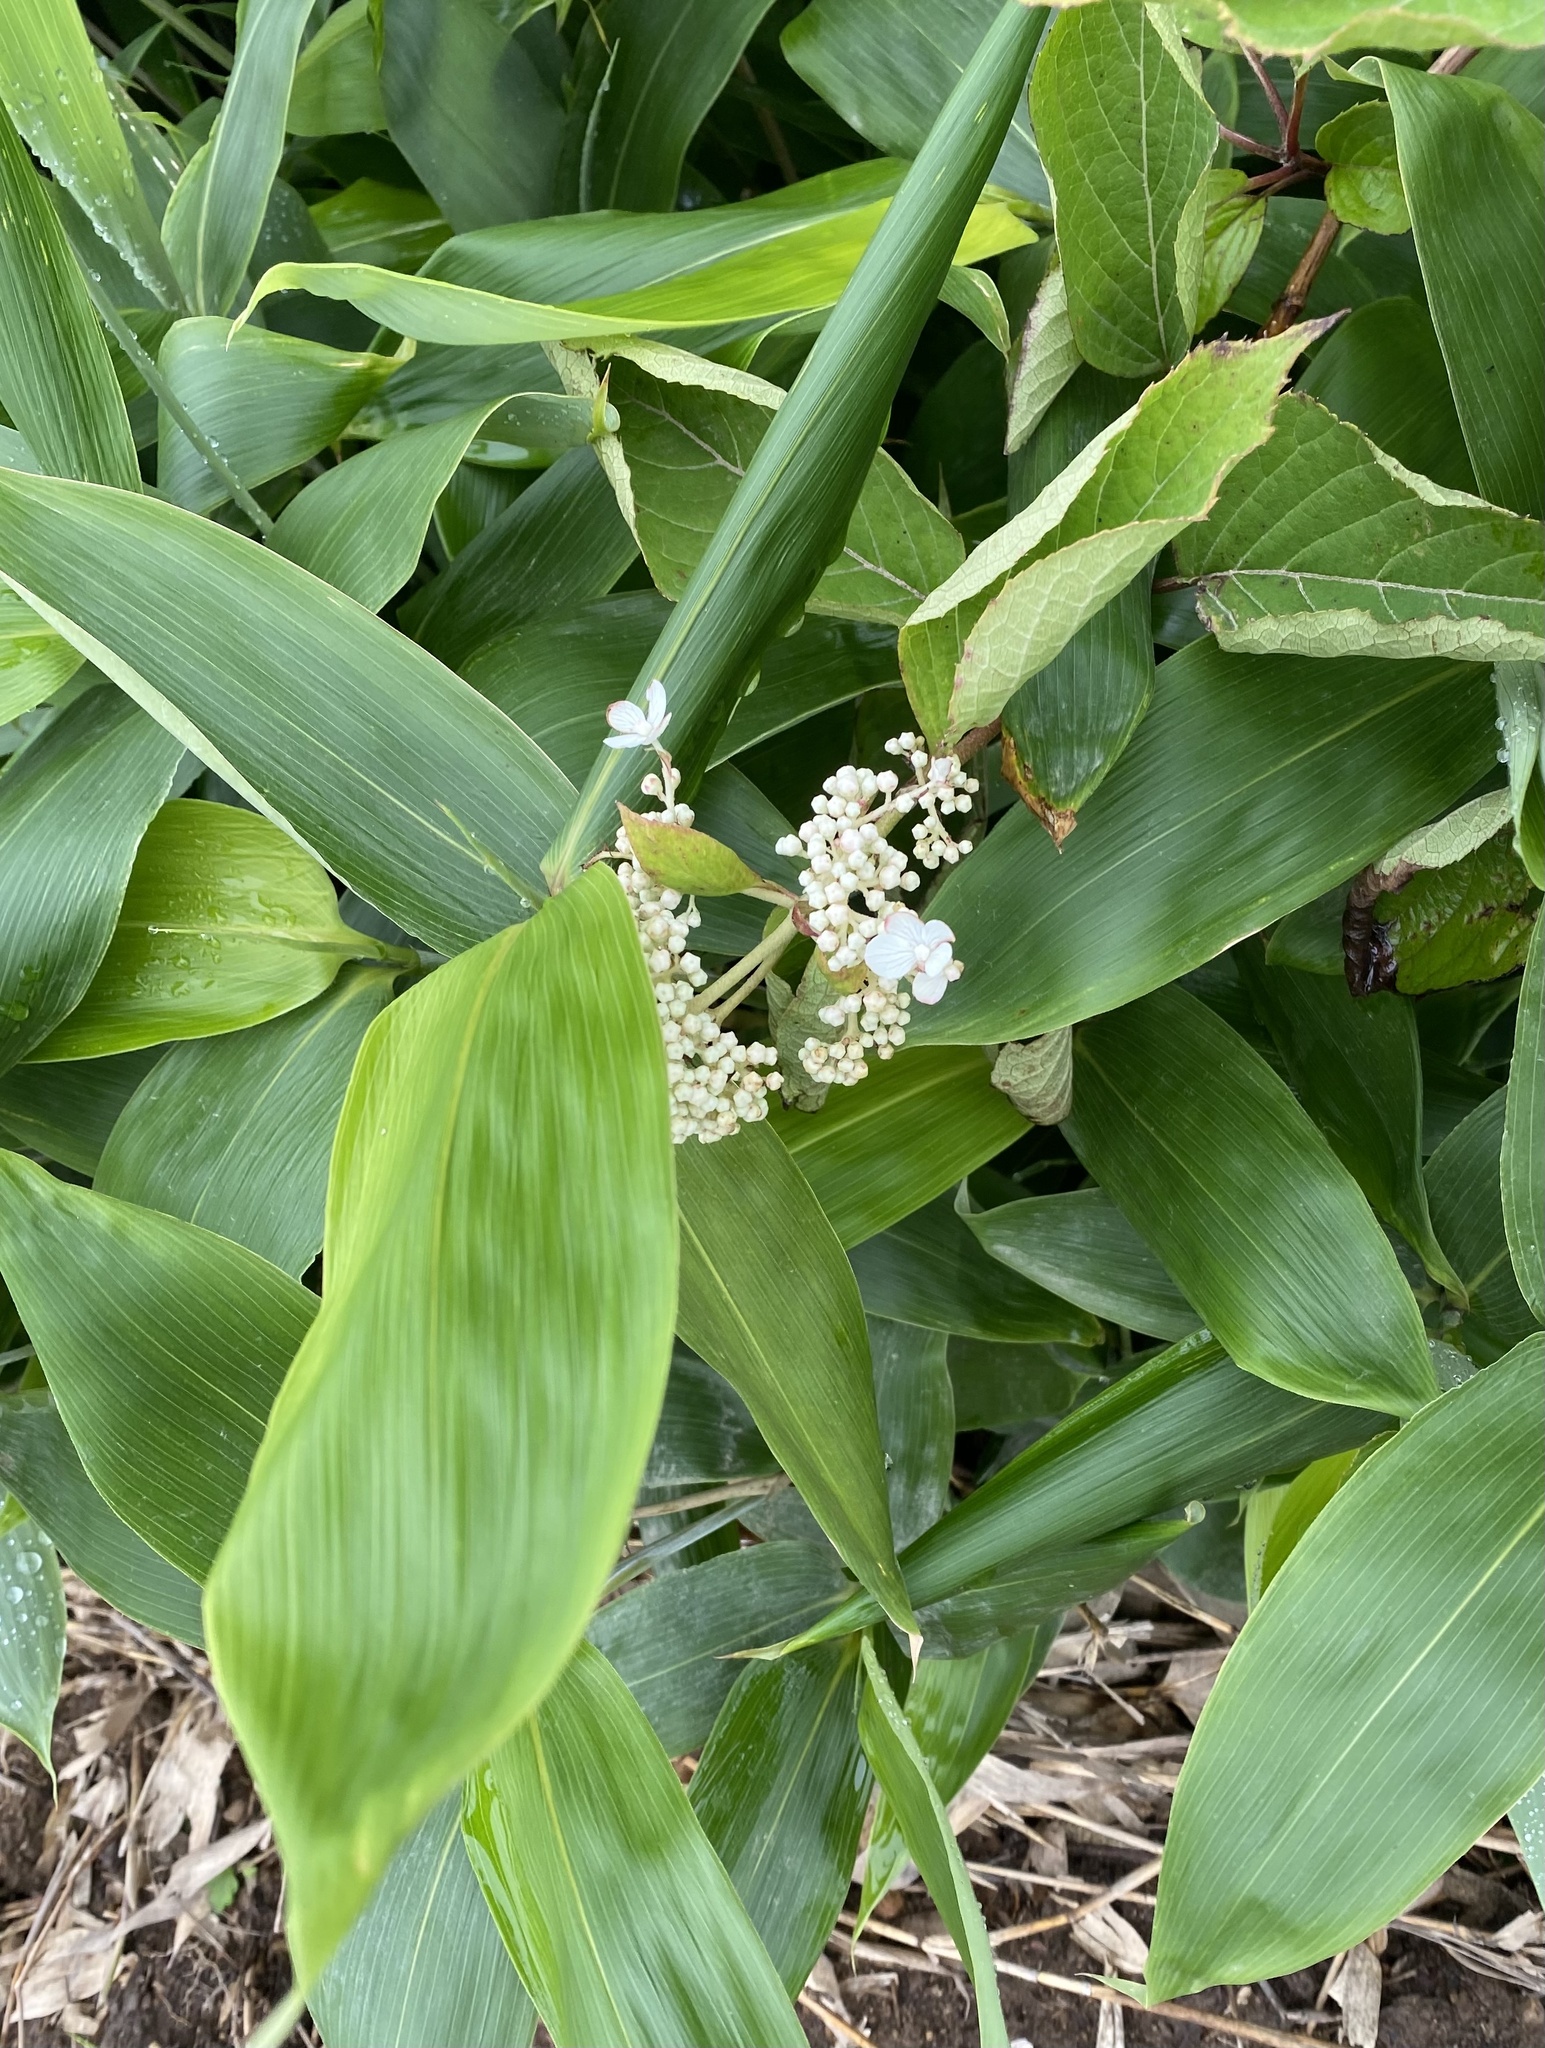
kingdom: Plantae
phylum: Tracheophyta
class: Magnoliopsida
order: Cornales
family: Hydrangeaceae
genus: Hydrangea
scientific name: Hydrangea paniculata
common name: Panicled hydrangea
